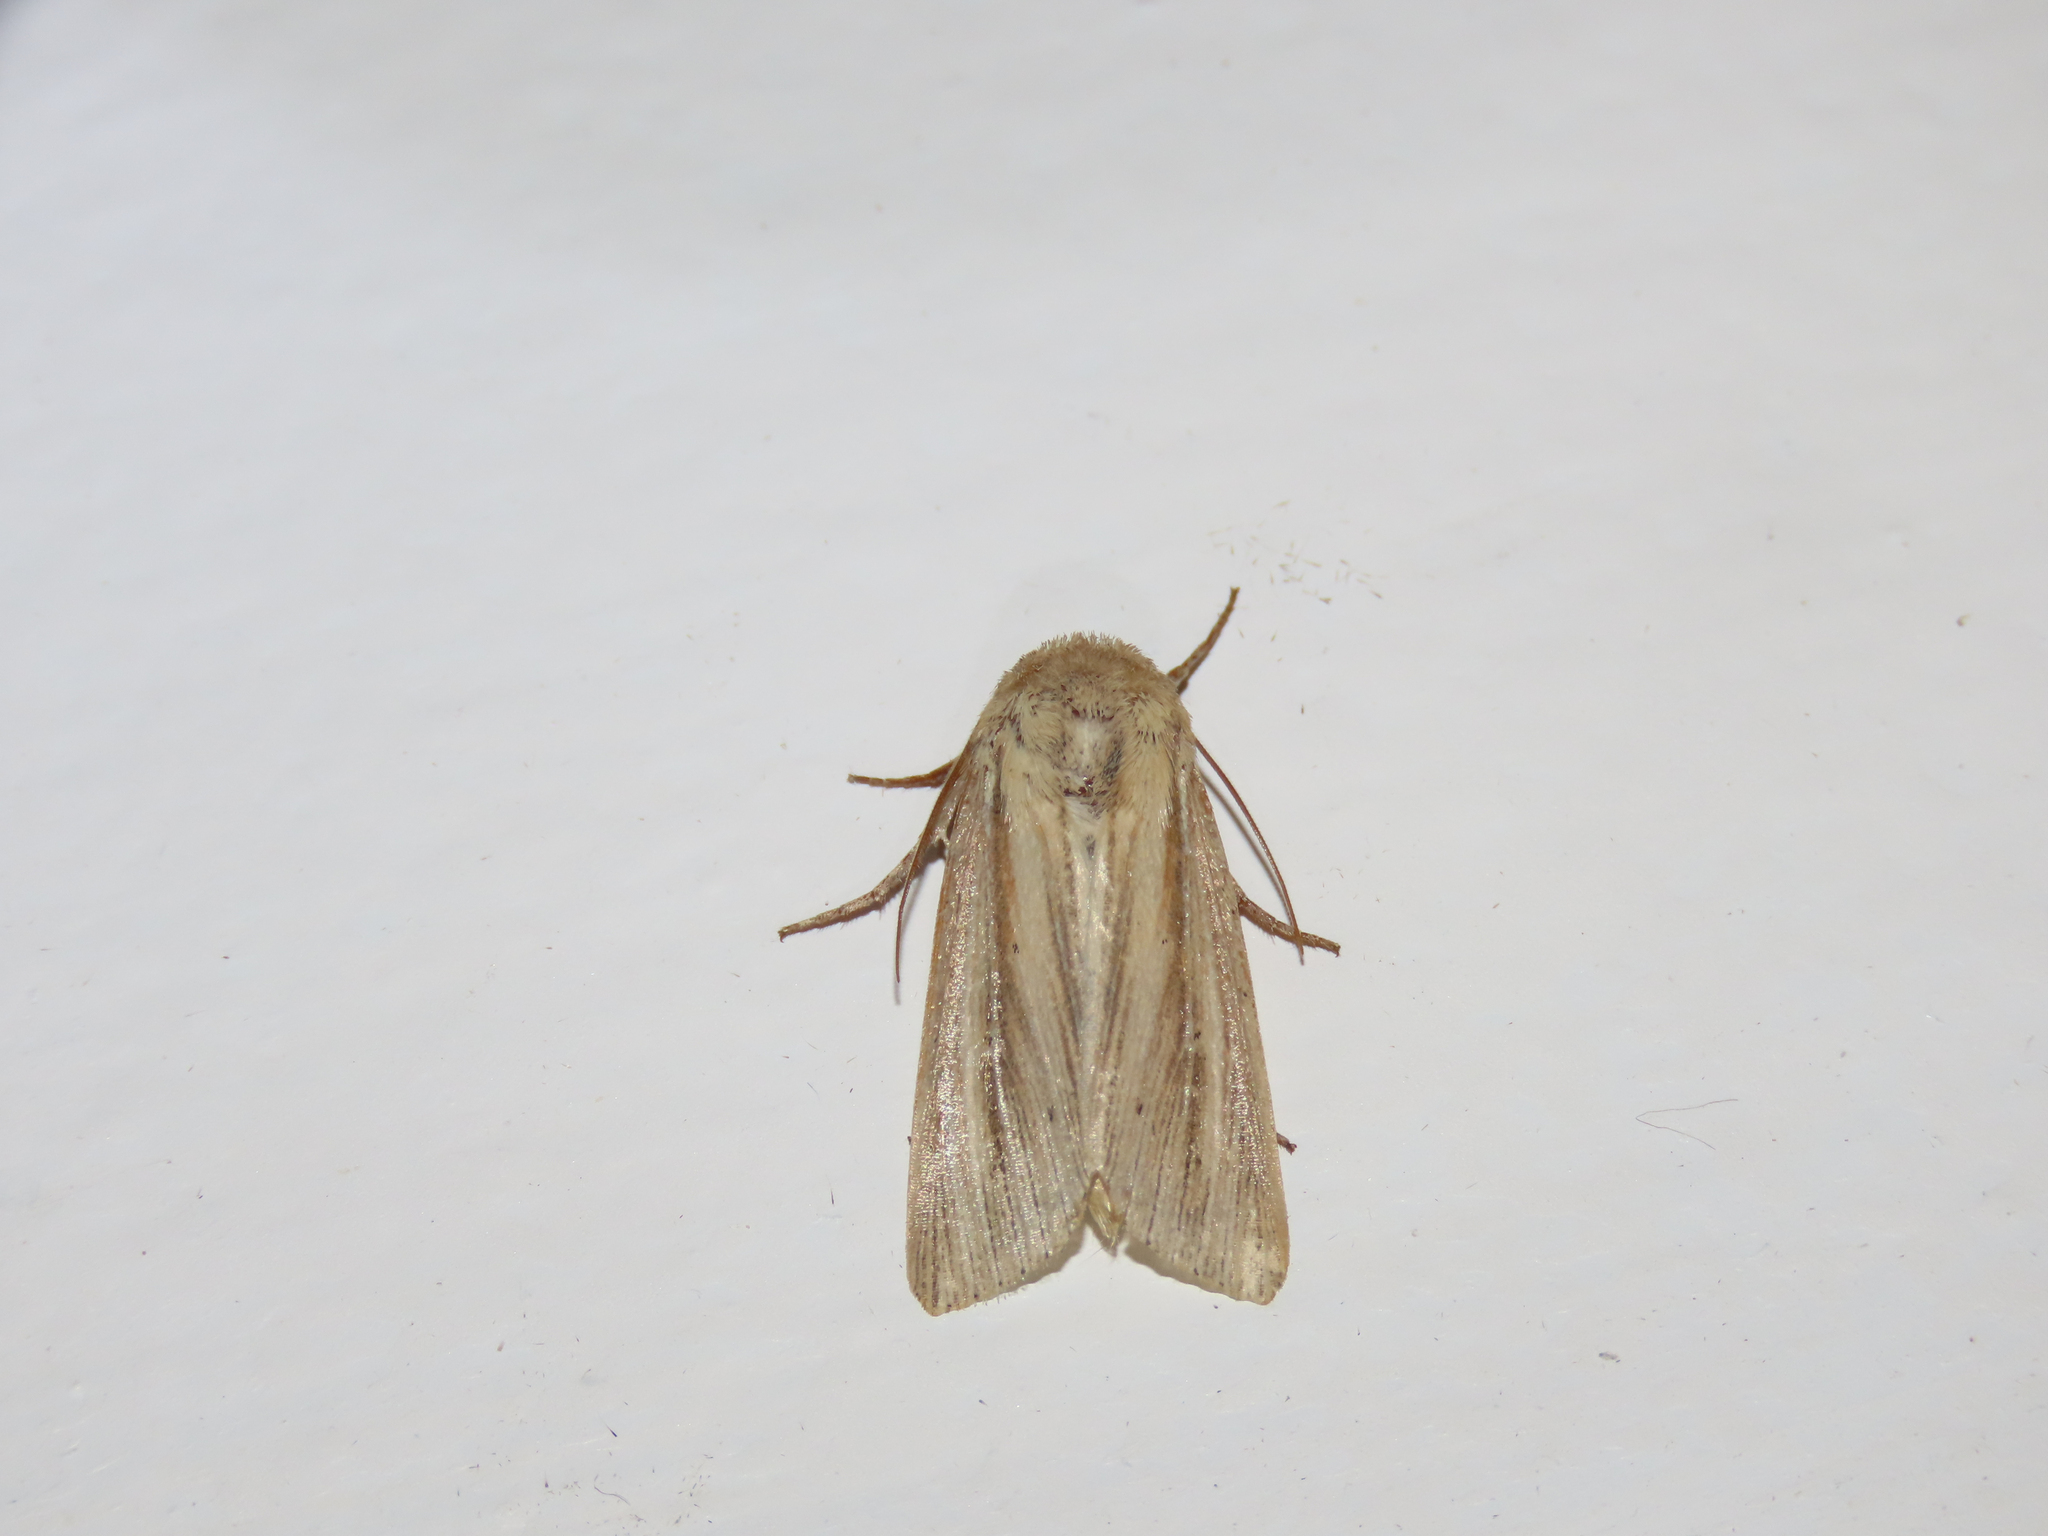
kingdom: Animalia
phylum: Arthropoda
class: Insecta
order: Lepidoptera
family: Noctuidae
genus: Leucania
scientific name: Leucania commoides
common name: Two-lined wainscot
